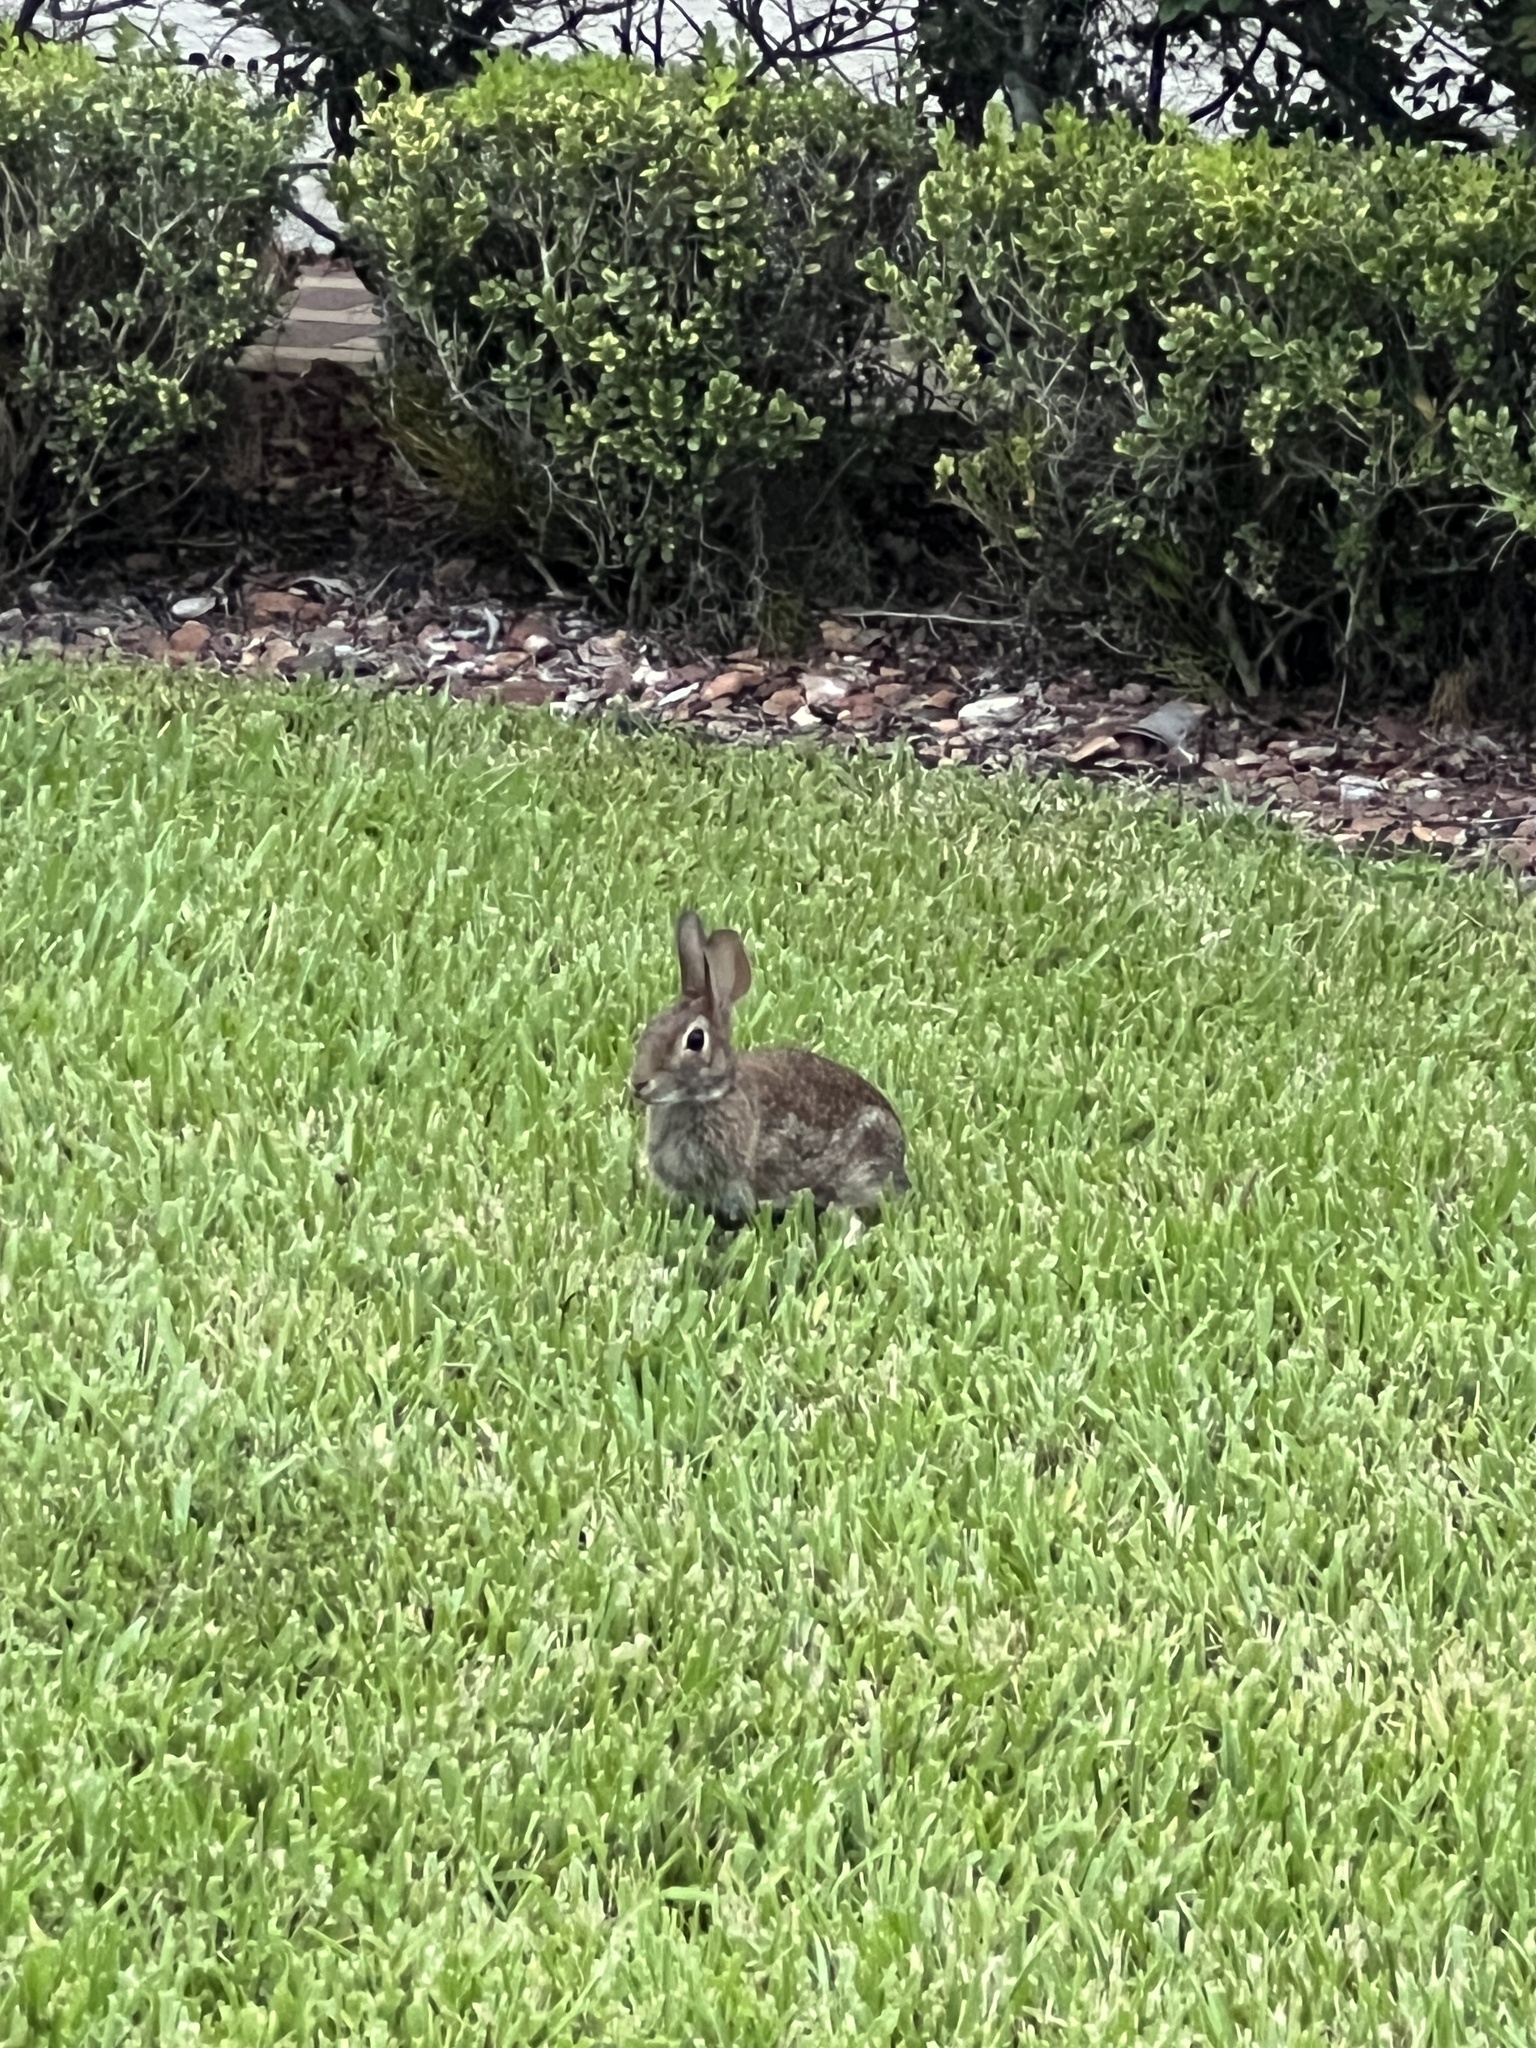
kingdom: Animalia
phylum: Chordata
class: Mammalia
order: Lagomorpha
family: Leporidae
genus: Sylvilagus
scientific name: Sylvilagus floridanus
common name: Eastern cottontail
